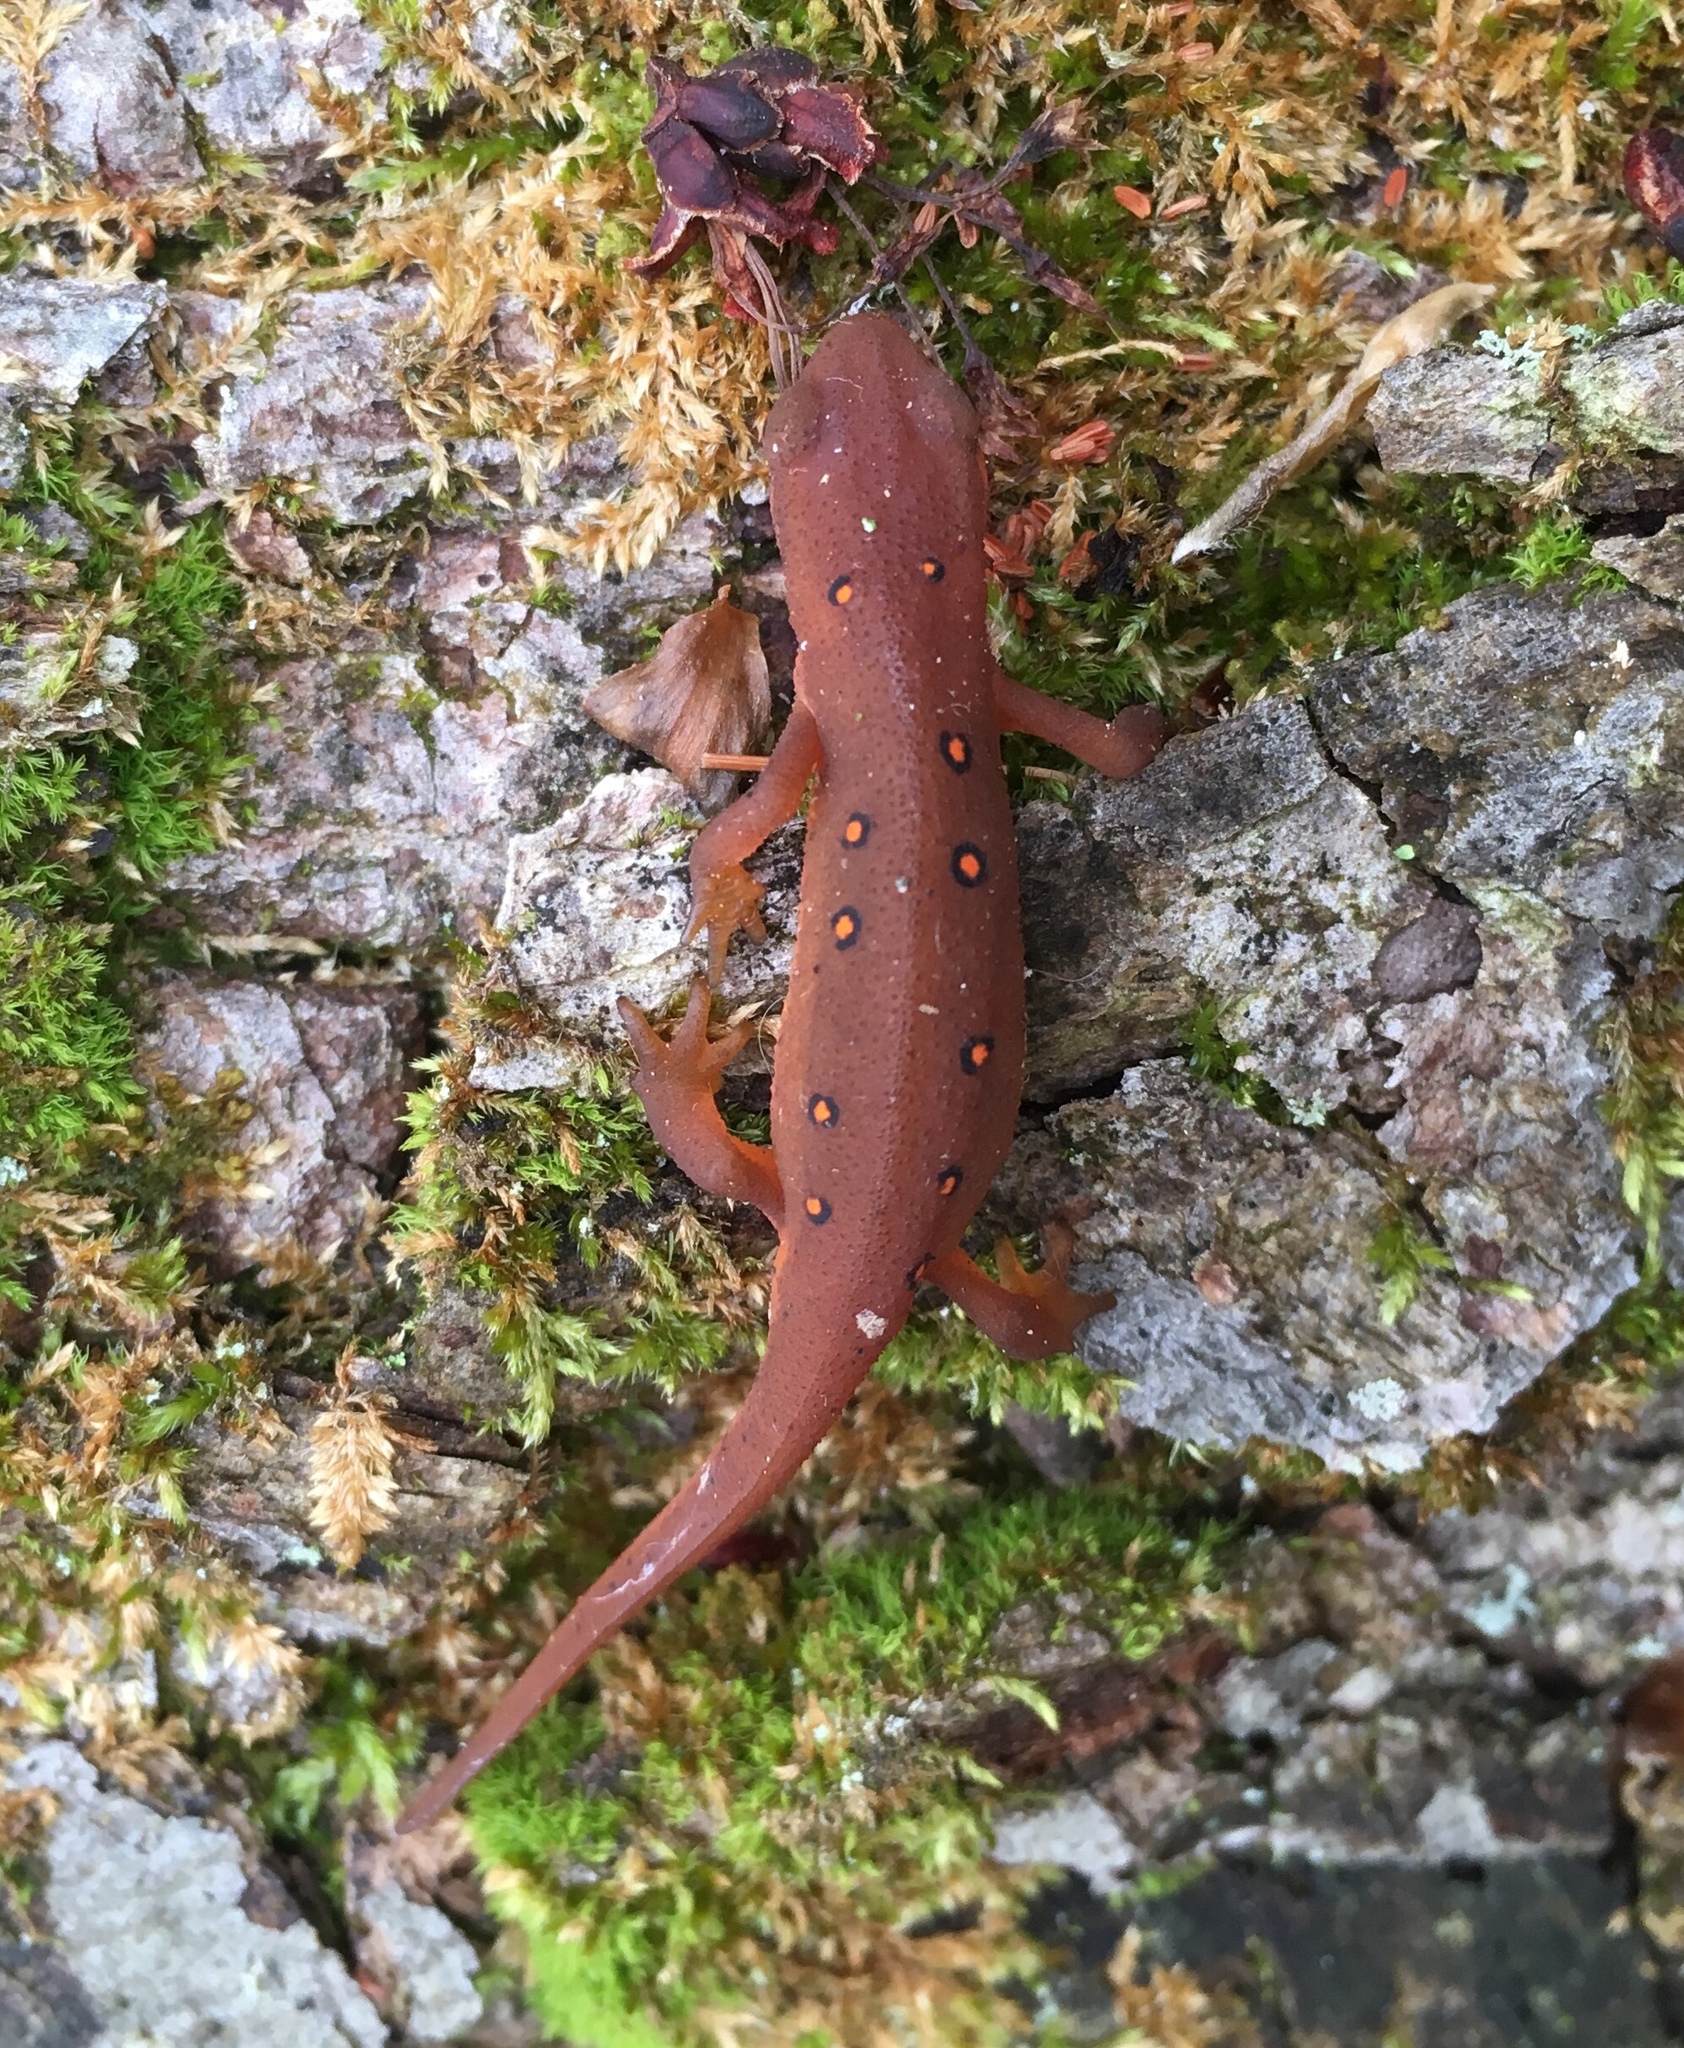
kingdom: Animalia
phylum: Chordata
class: Amphibia
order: Caudata
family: Salamandridae
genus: Notophthalmus
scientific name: Notophthalmus viridescens
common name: Eastern newt
